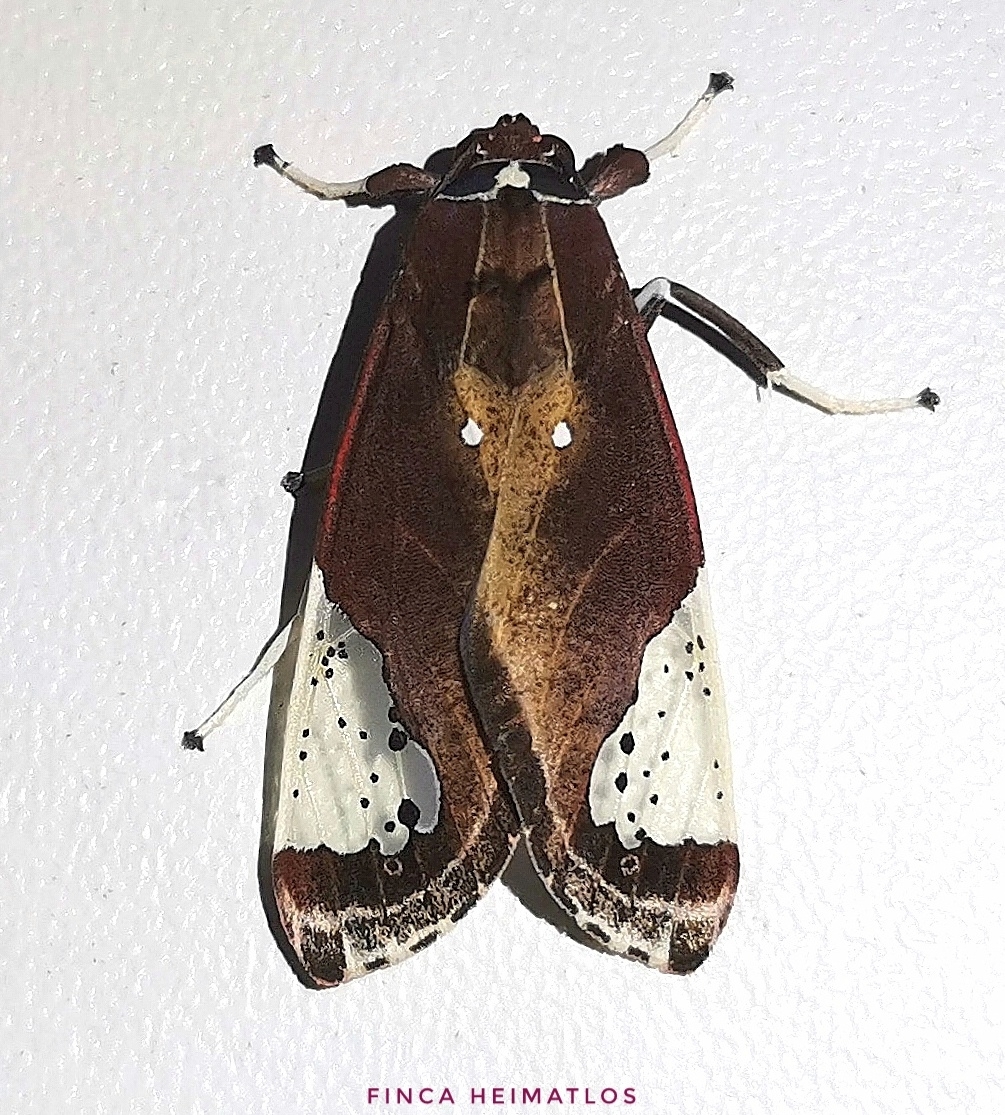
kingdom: Animalia
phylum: Arthropoda
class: Insecta
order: Lepidoptera
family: Erebidae
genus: Bertholdia
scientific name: Bertholdia flavidorsata
